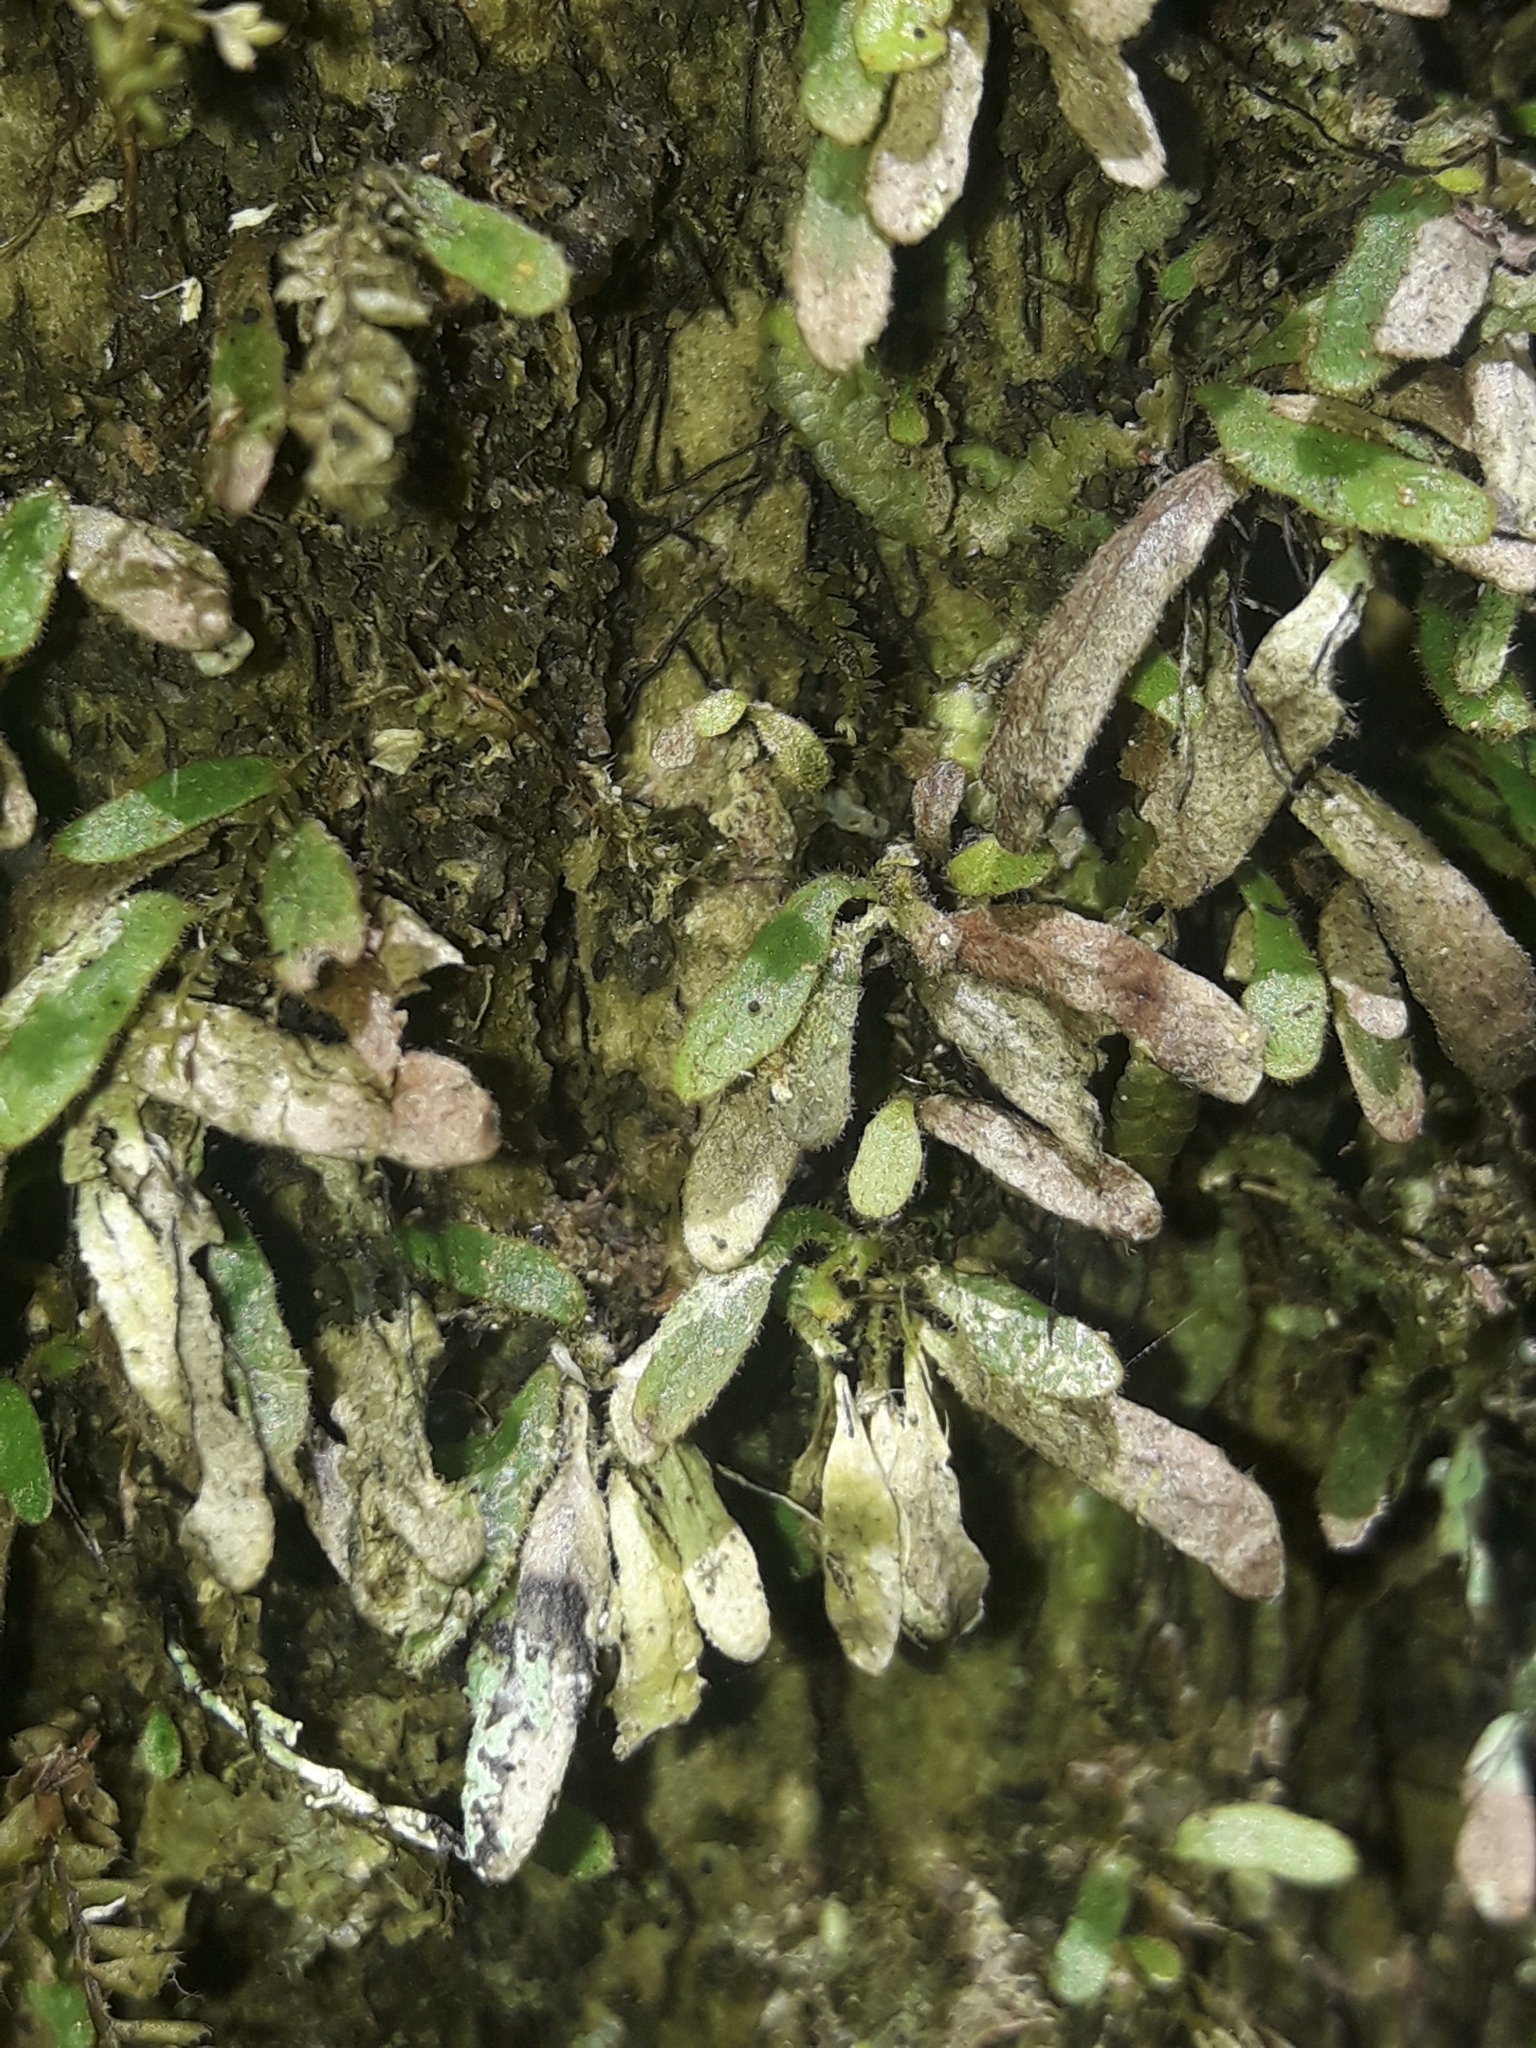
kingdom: Plantae
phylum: Tracheophyta
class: Polypodiopsida
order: Polypodiales
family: Polypodiaceae
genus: Grammitis
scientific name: Grammitis pseudaustralis
